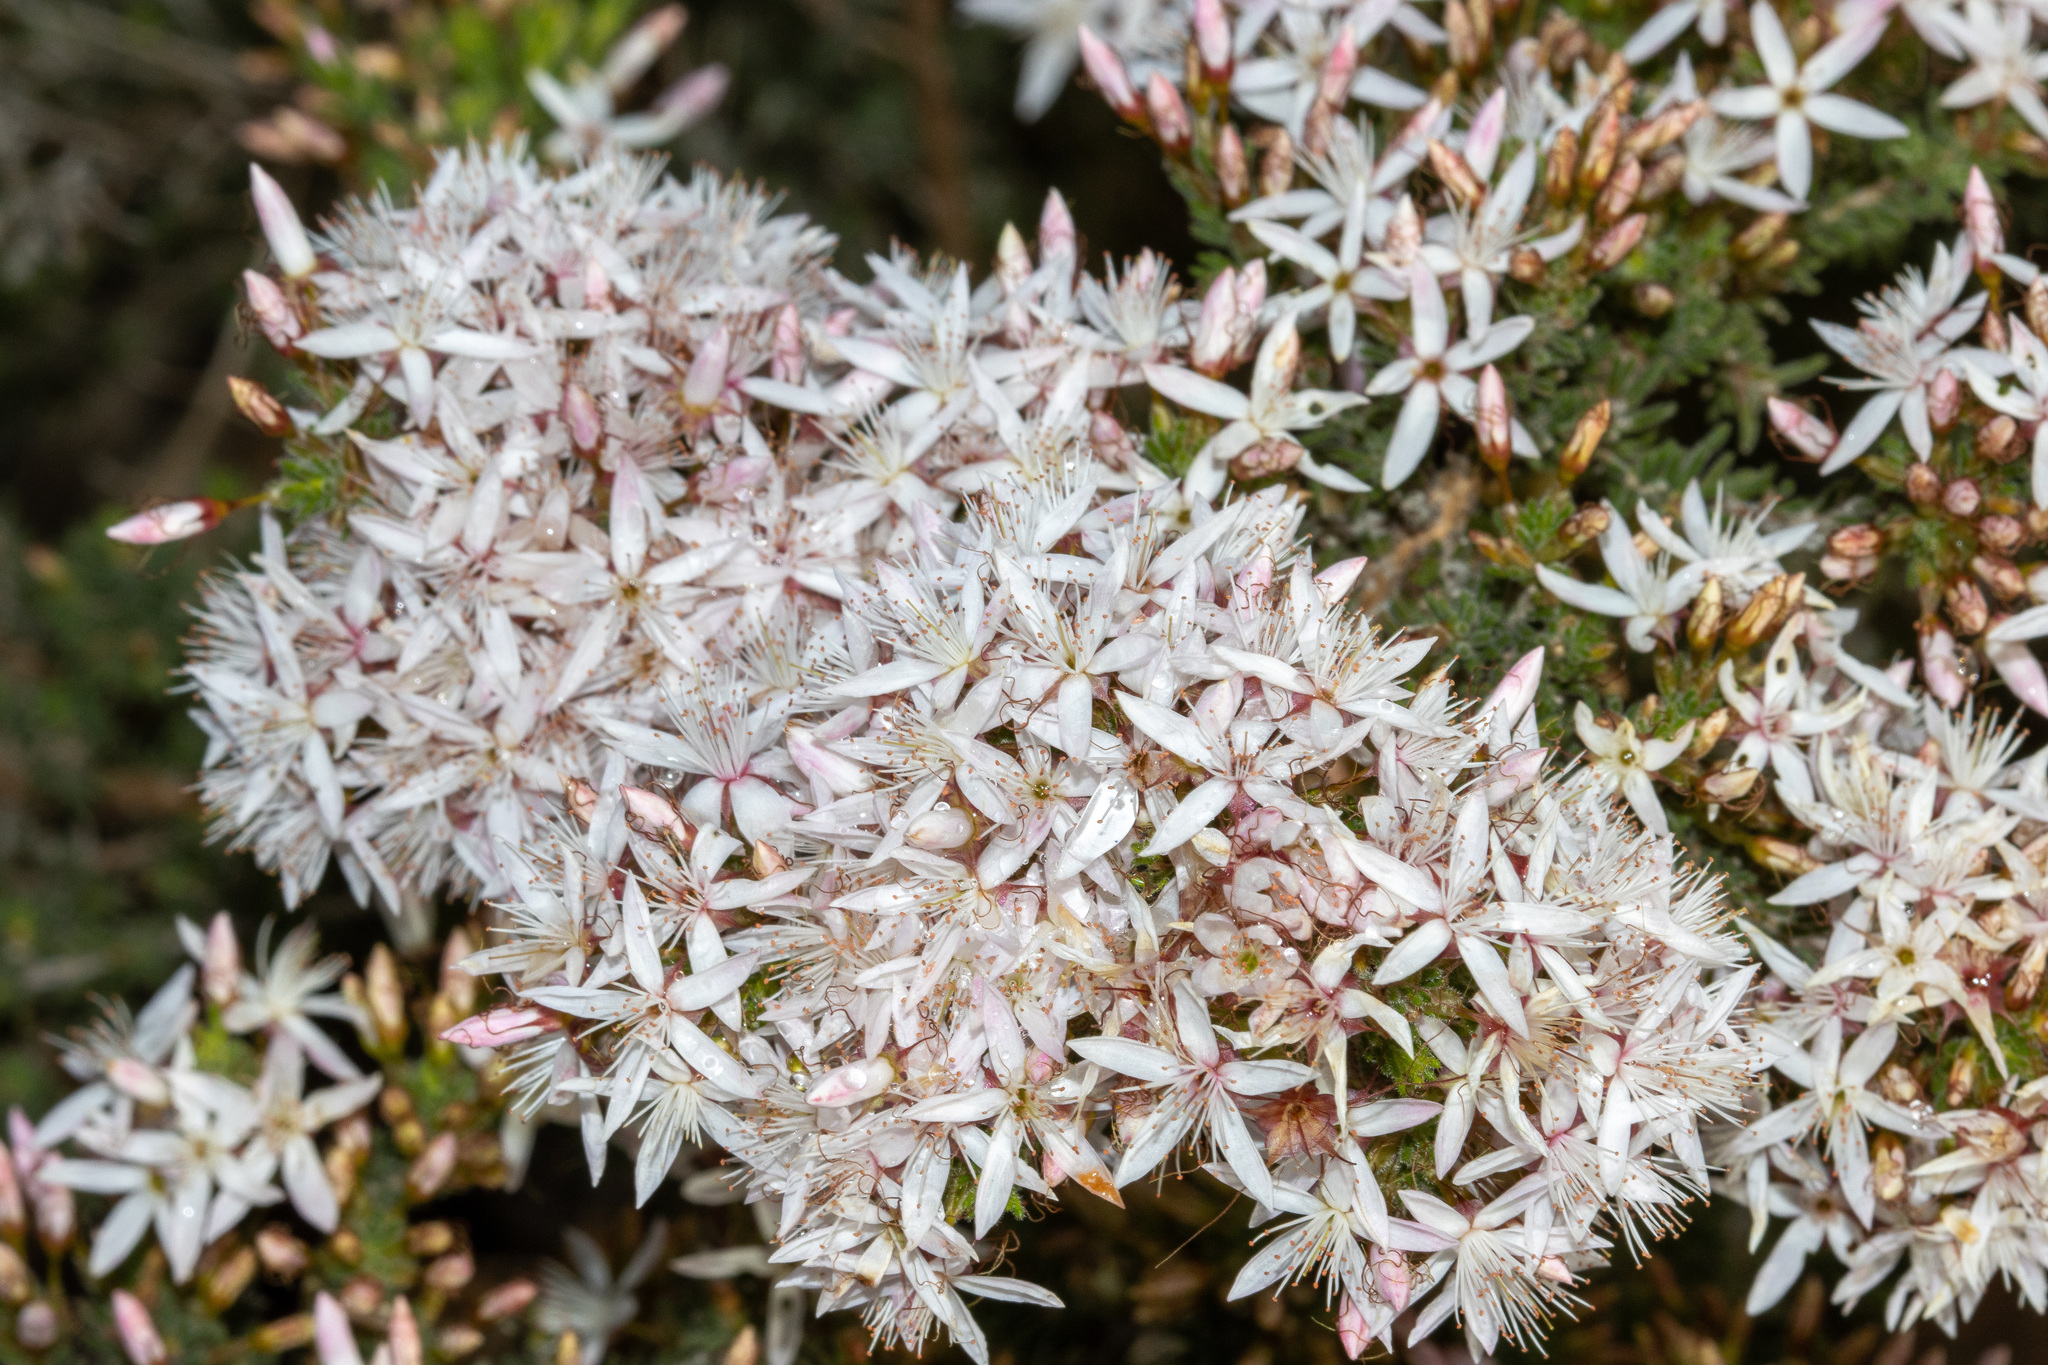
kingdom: Plantae
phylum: Tracheophyta
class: Magnoliopsida
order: Myrtales
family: Myrtaceae
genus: Calytrix
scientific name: Calytrix tetragona
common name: Common fringe myrtle
